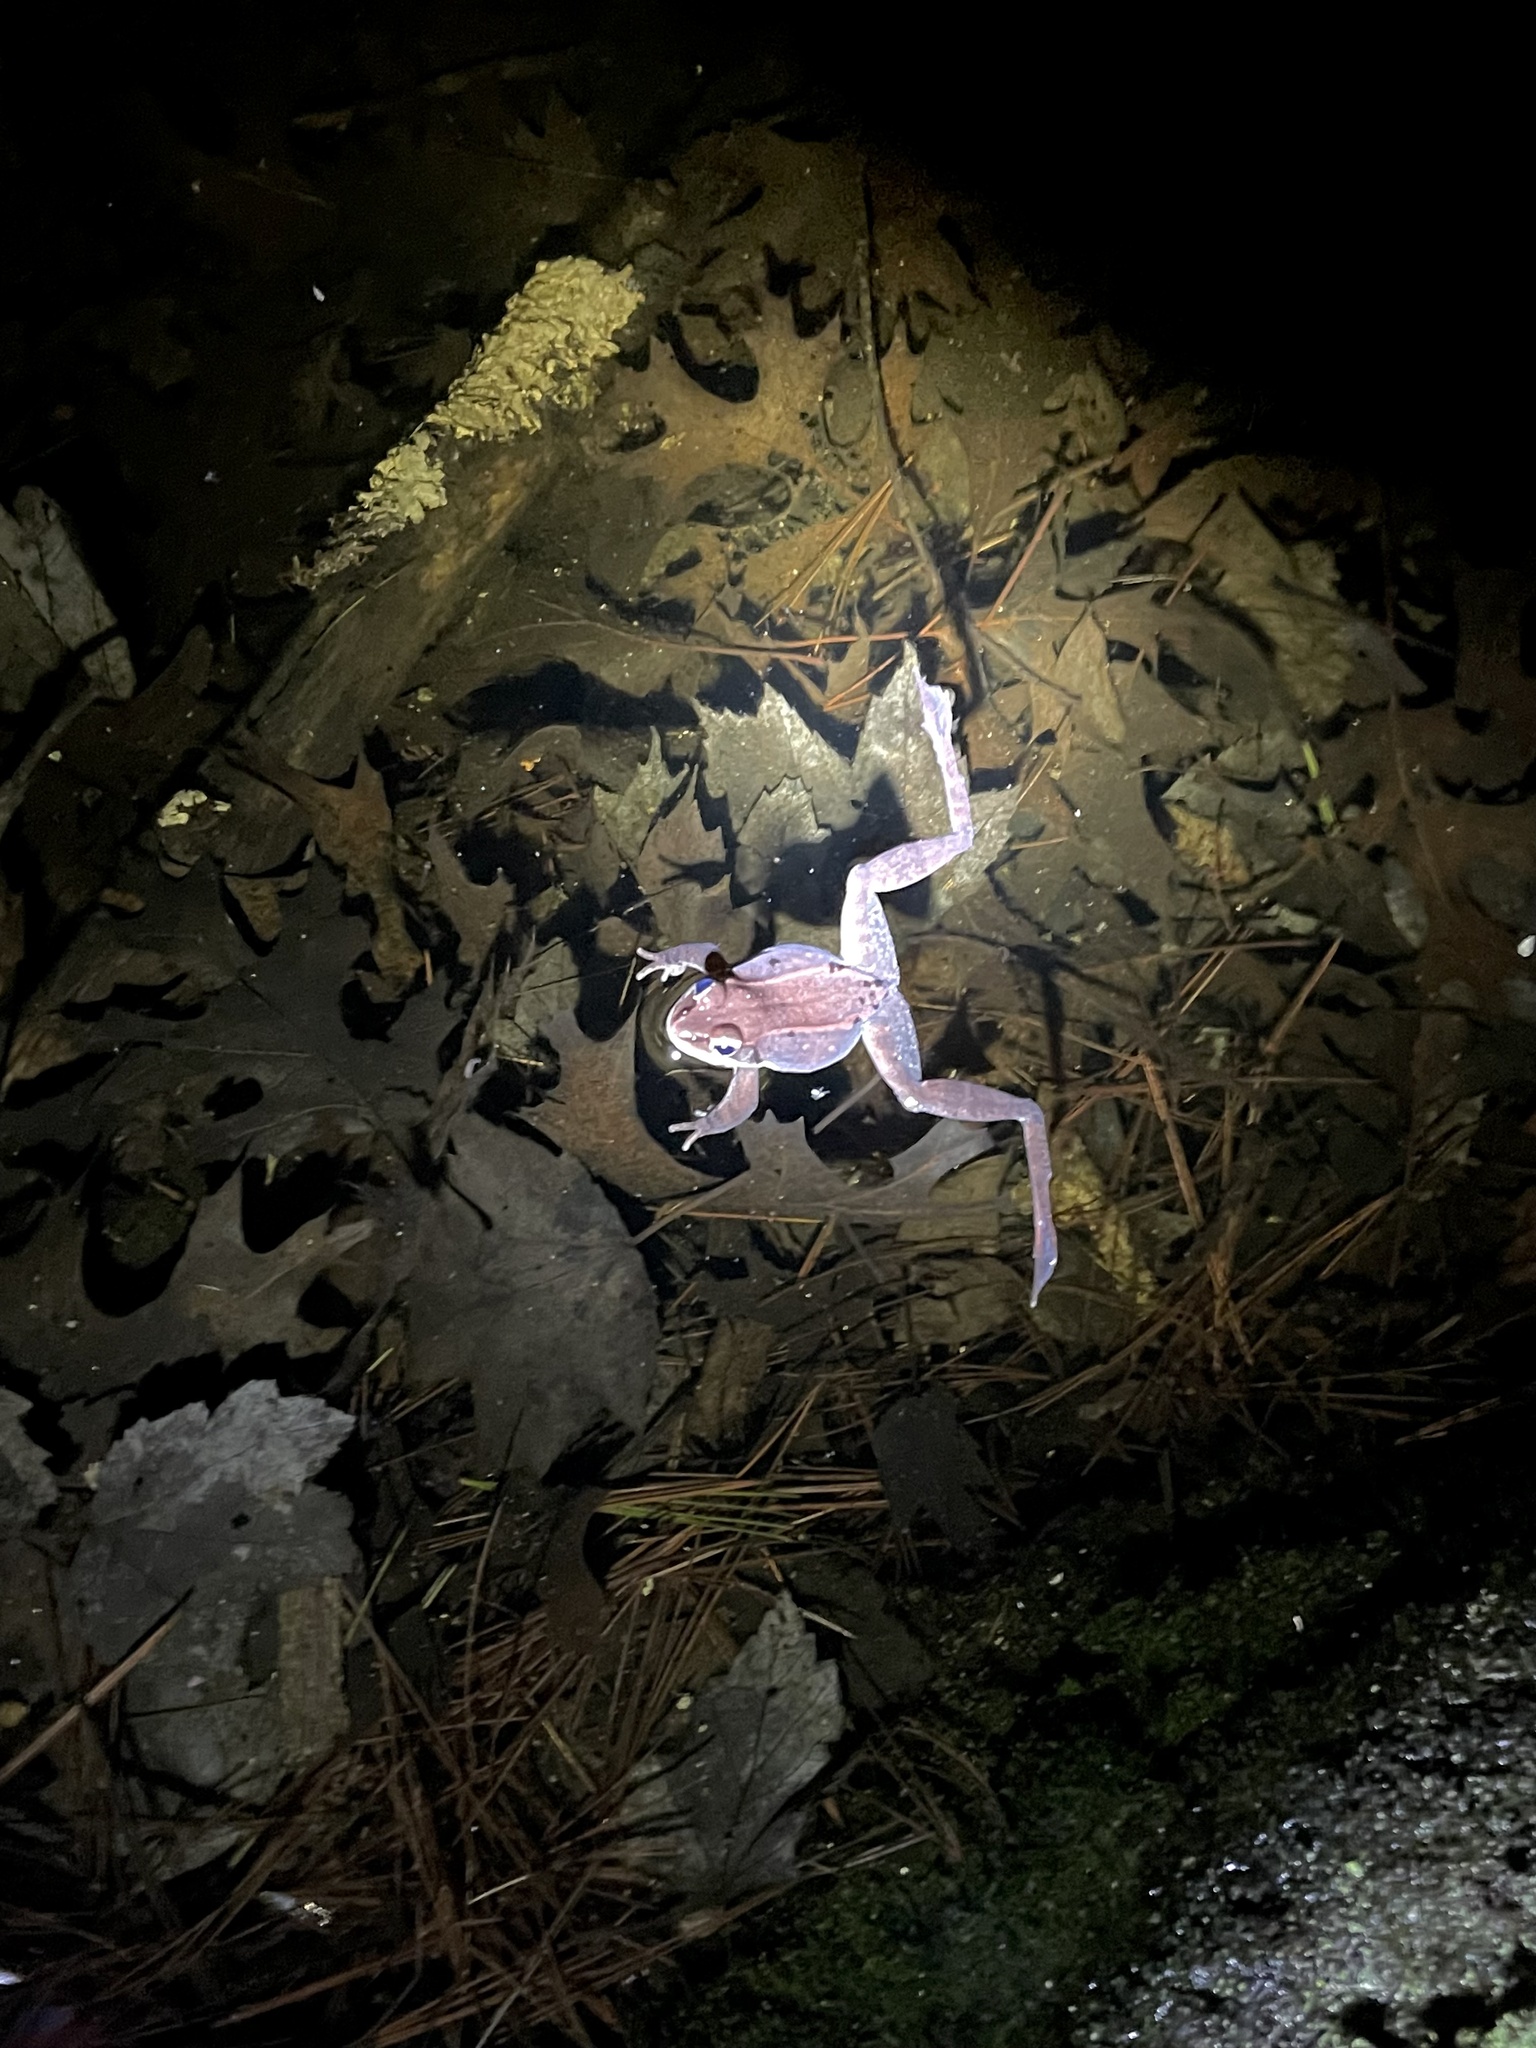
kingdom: Animalia
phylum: Chordata
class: Amphibia
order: Anura
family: Ranidae
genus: Lithobates
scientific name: Lithobates sylvaticus
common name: Wood frog
